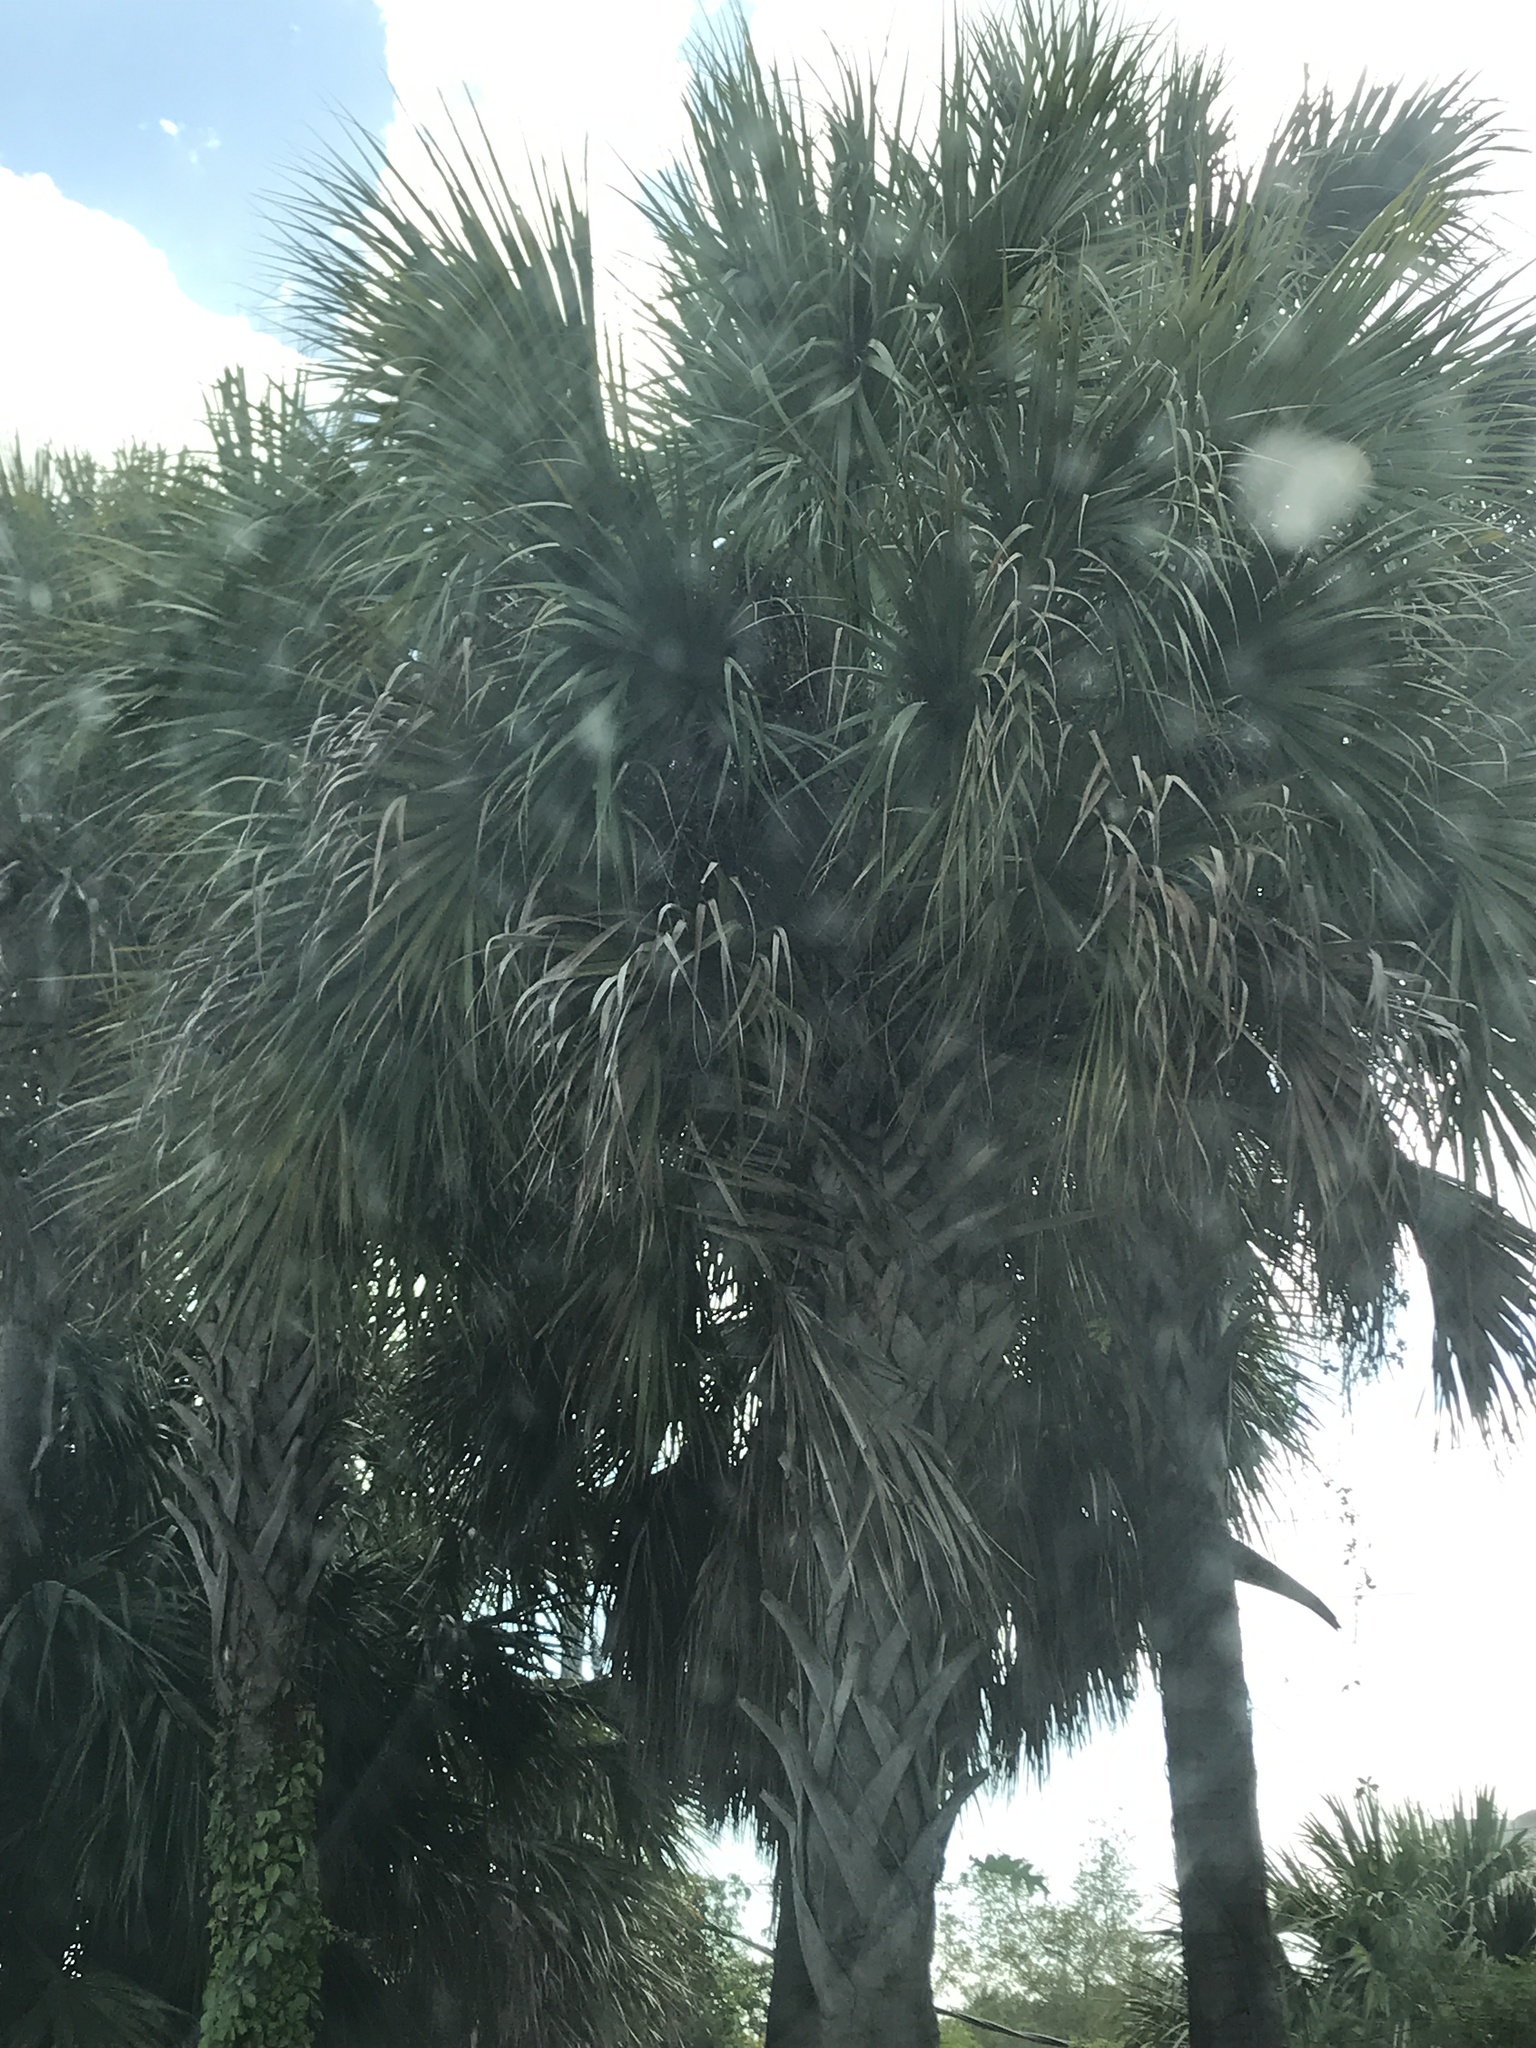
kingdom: Plantae
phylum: Tracheophyta
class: Liliopsida
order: Arecales
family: Arecaceae
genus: Sabal
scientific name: Sabal palmetto
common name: Blue palmetto
